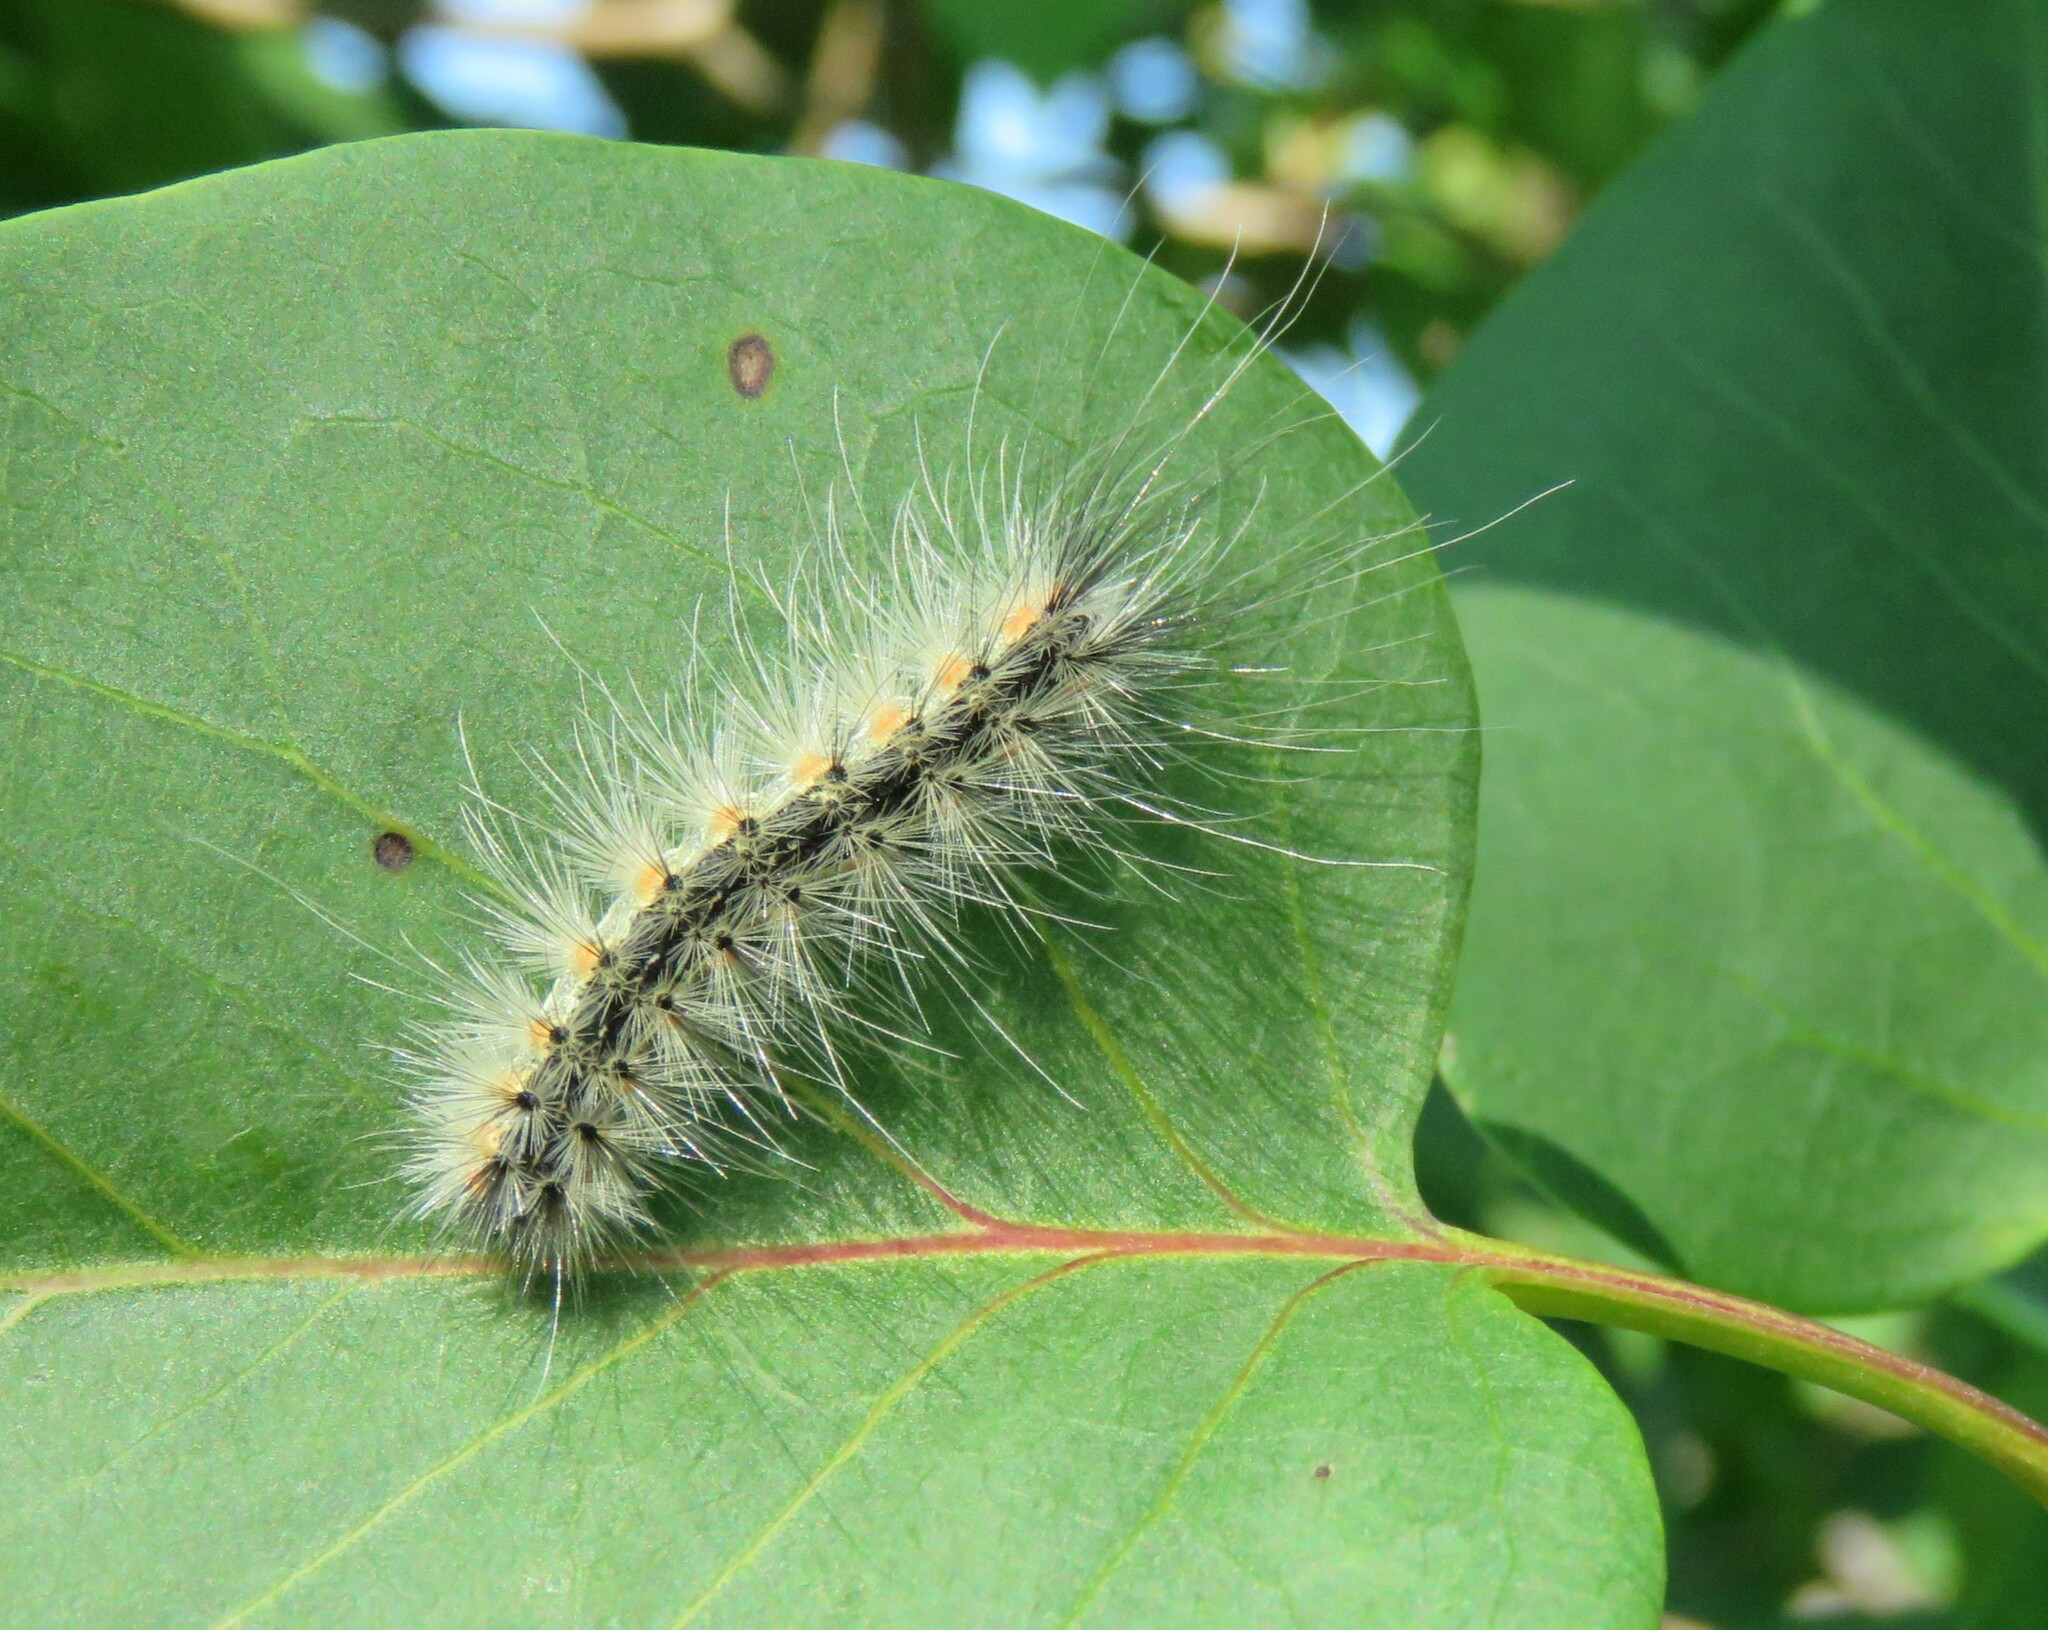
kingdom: Animalia
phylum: Arthropoda
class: Insecta
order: Lepidoptera
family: Erebidae
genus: Hyphantria
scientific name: Hyphantria cunea
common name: American white moth
